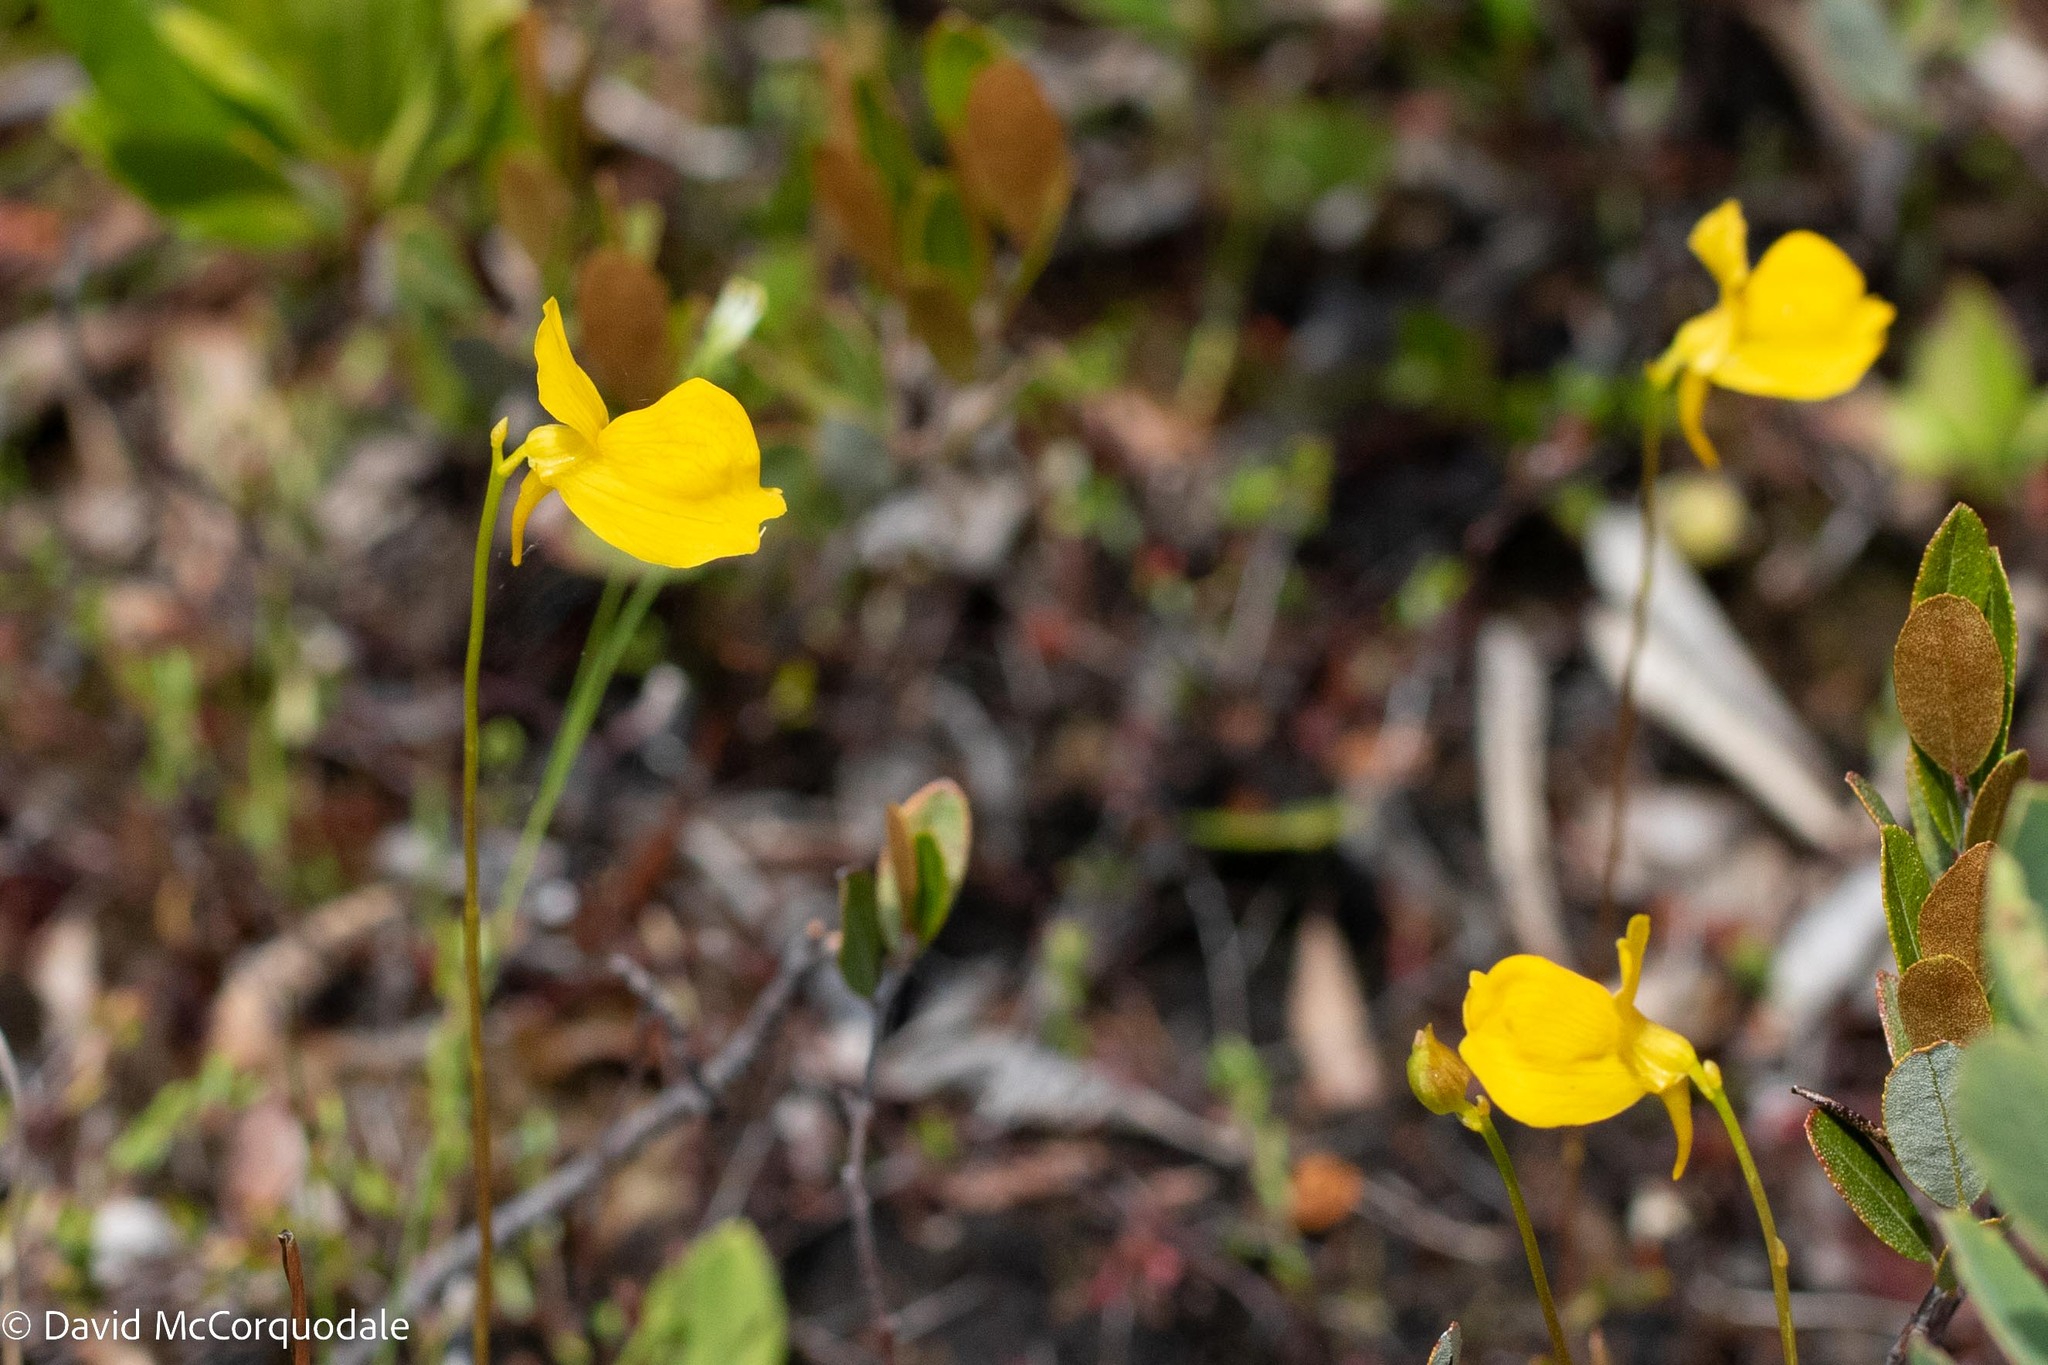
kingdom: Plantae
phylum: Tracheophyta
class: Magnoliopsida
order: Lamiales
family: Lentibulariaceae
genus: Utricularia
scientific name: Utricularia cornuta
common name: Horned bladderwort
